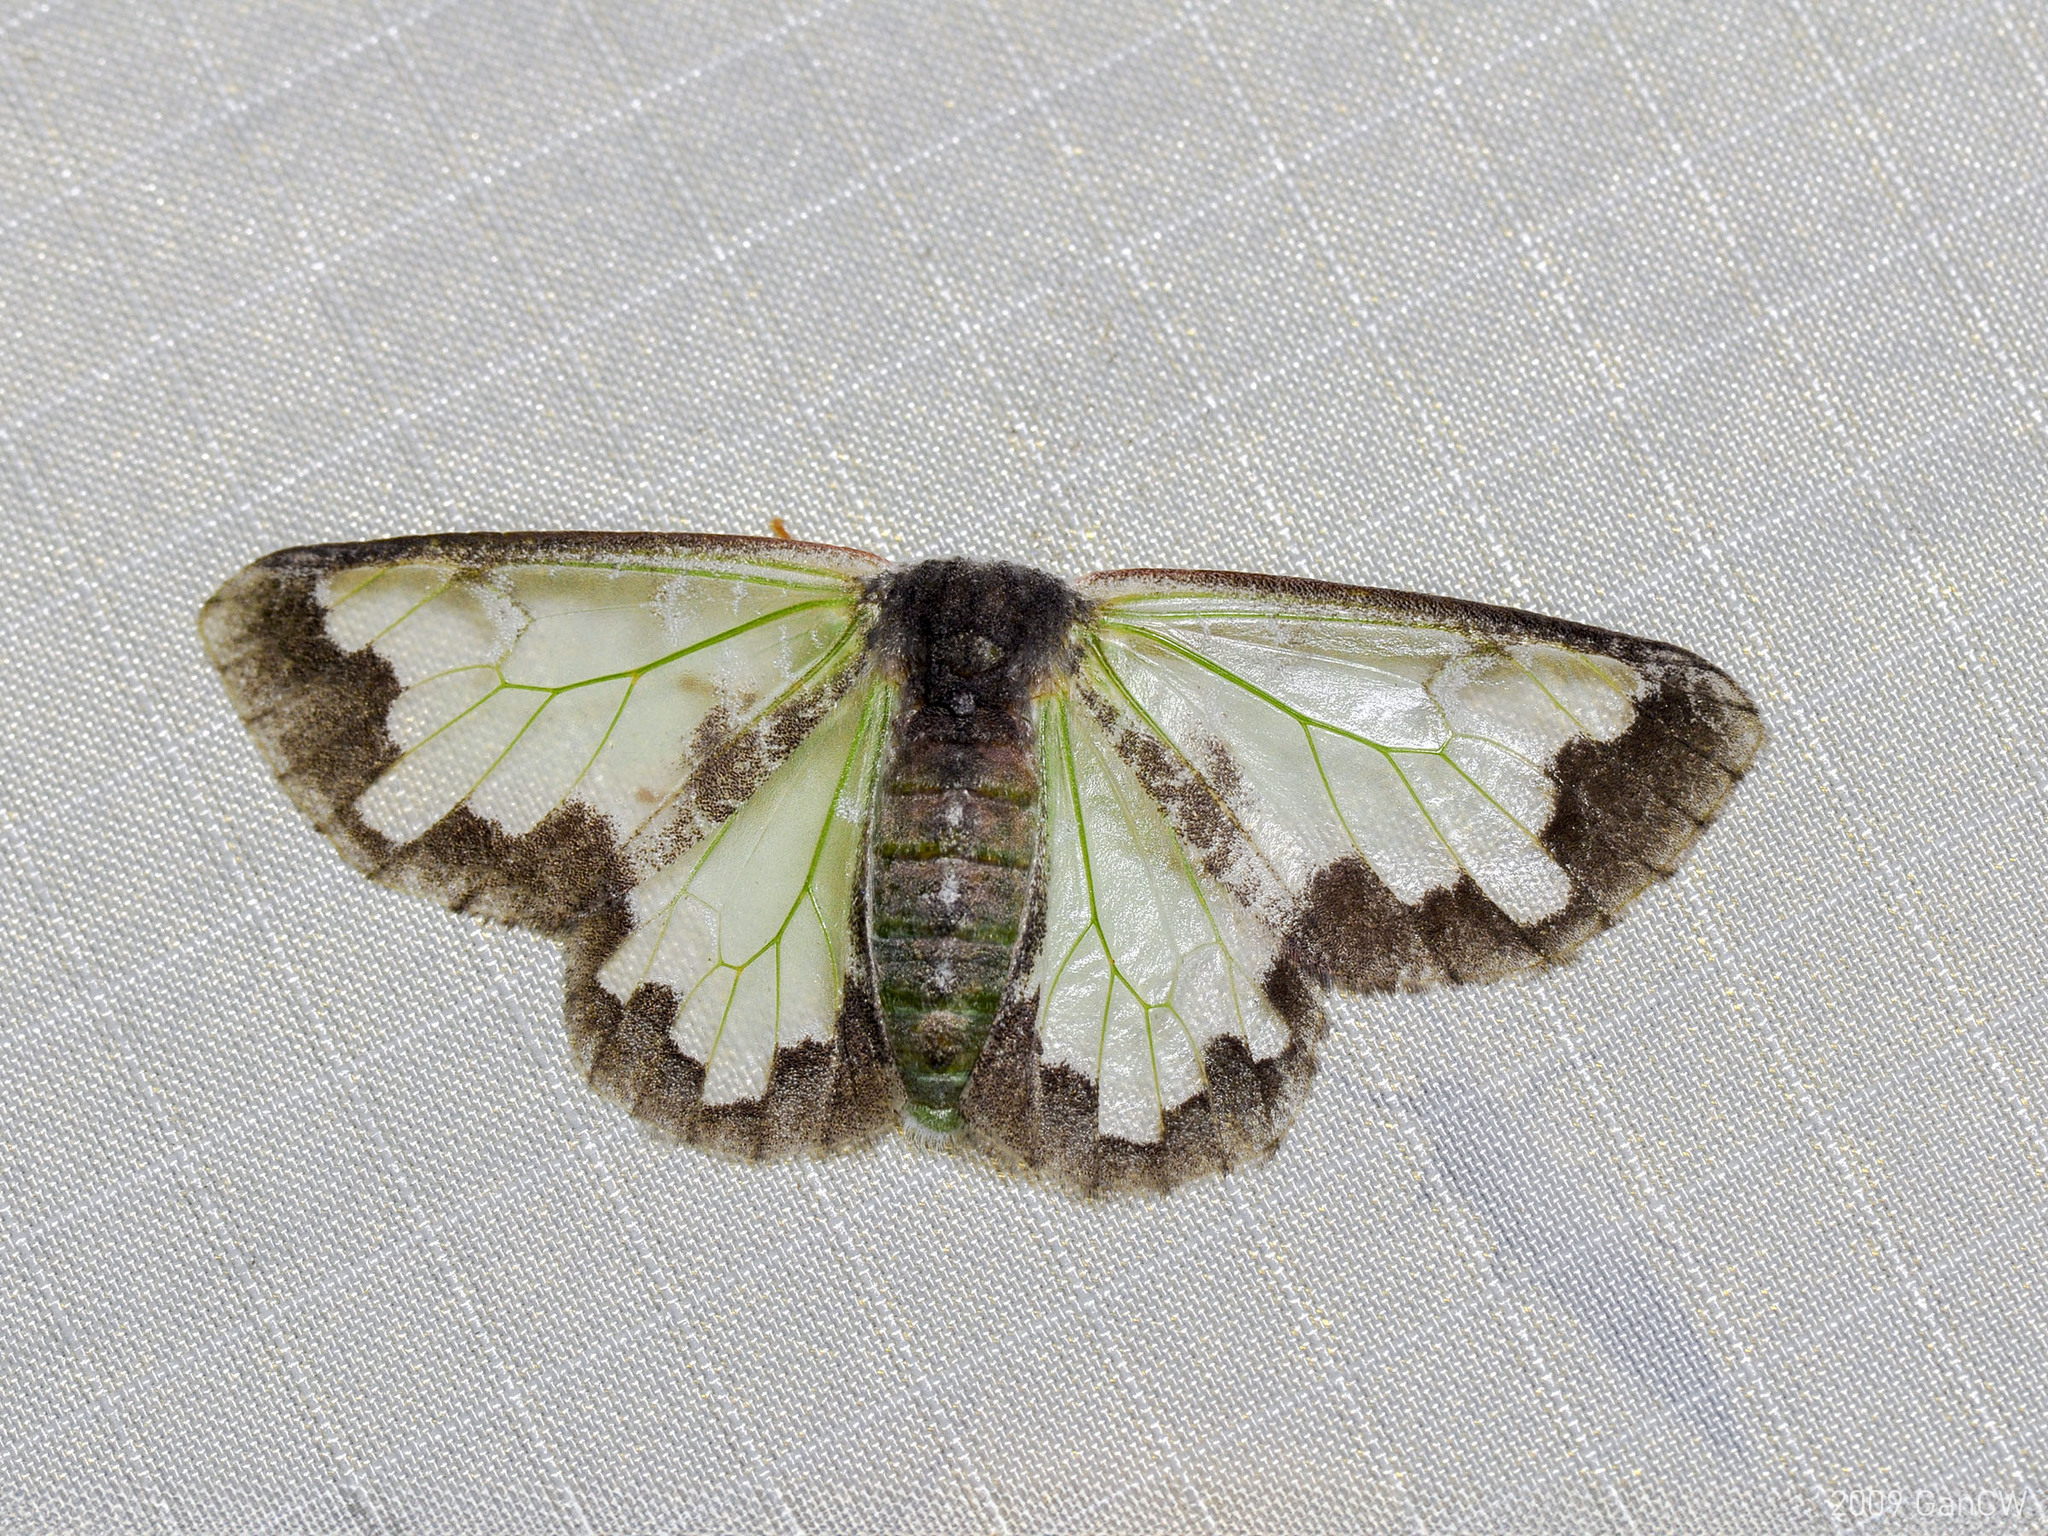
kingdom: Animalia
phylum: Arthropoda
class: Insecta
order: Lepidoptera
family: Erebidae
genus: Carriola
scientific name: Carriola thyridophora
